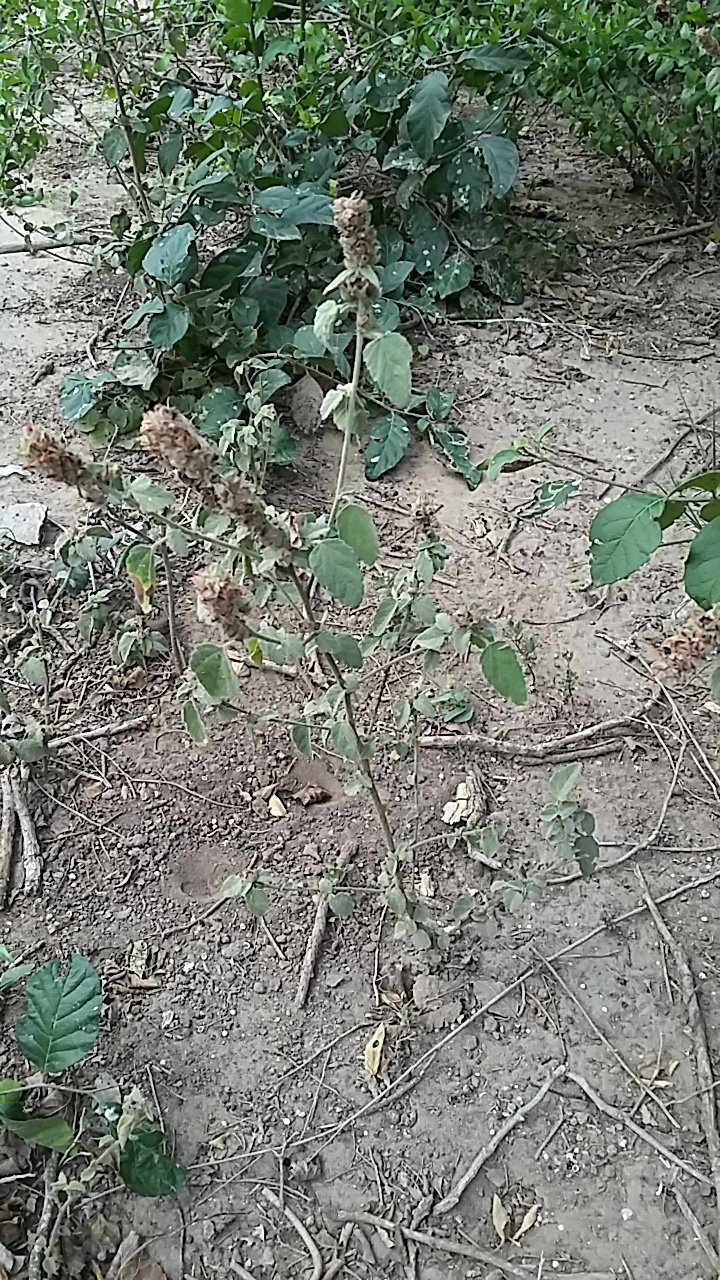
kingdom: Plantae
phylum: Tracheophyta
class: Magnoliopsida
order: Malvales
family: Malvaceae
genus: Malvastrum
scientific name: Malvastrum americanum
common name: Spiked malvastrum
